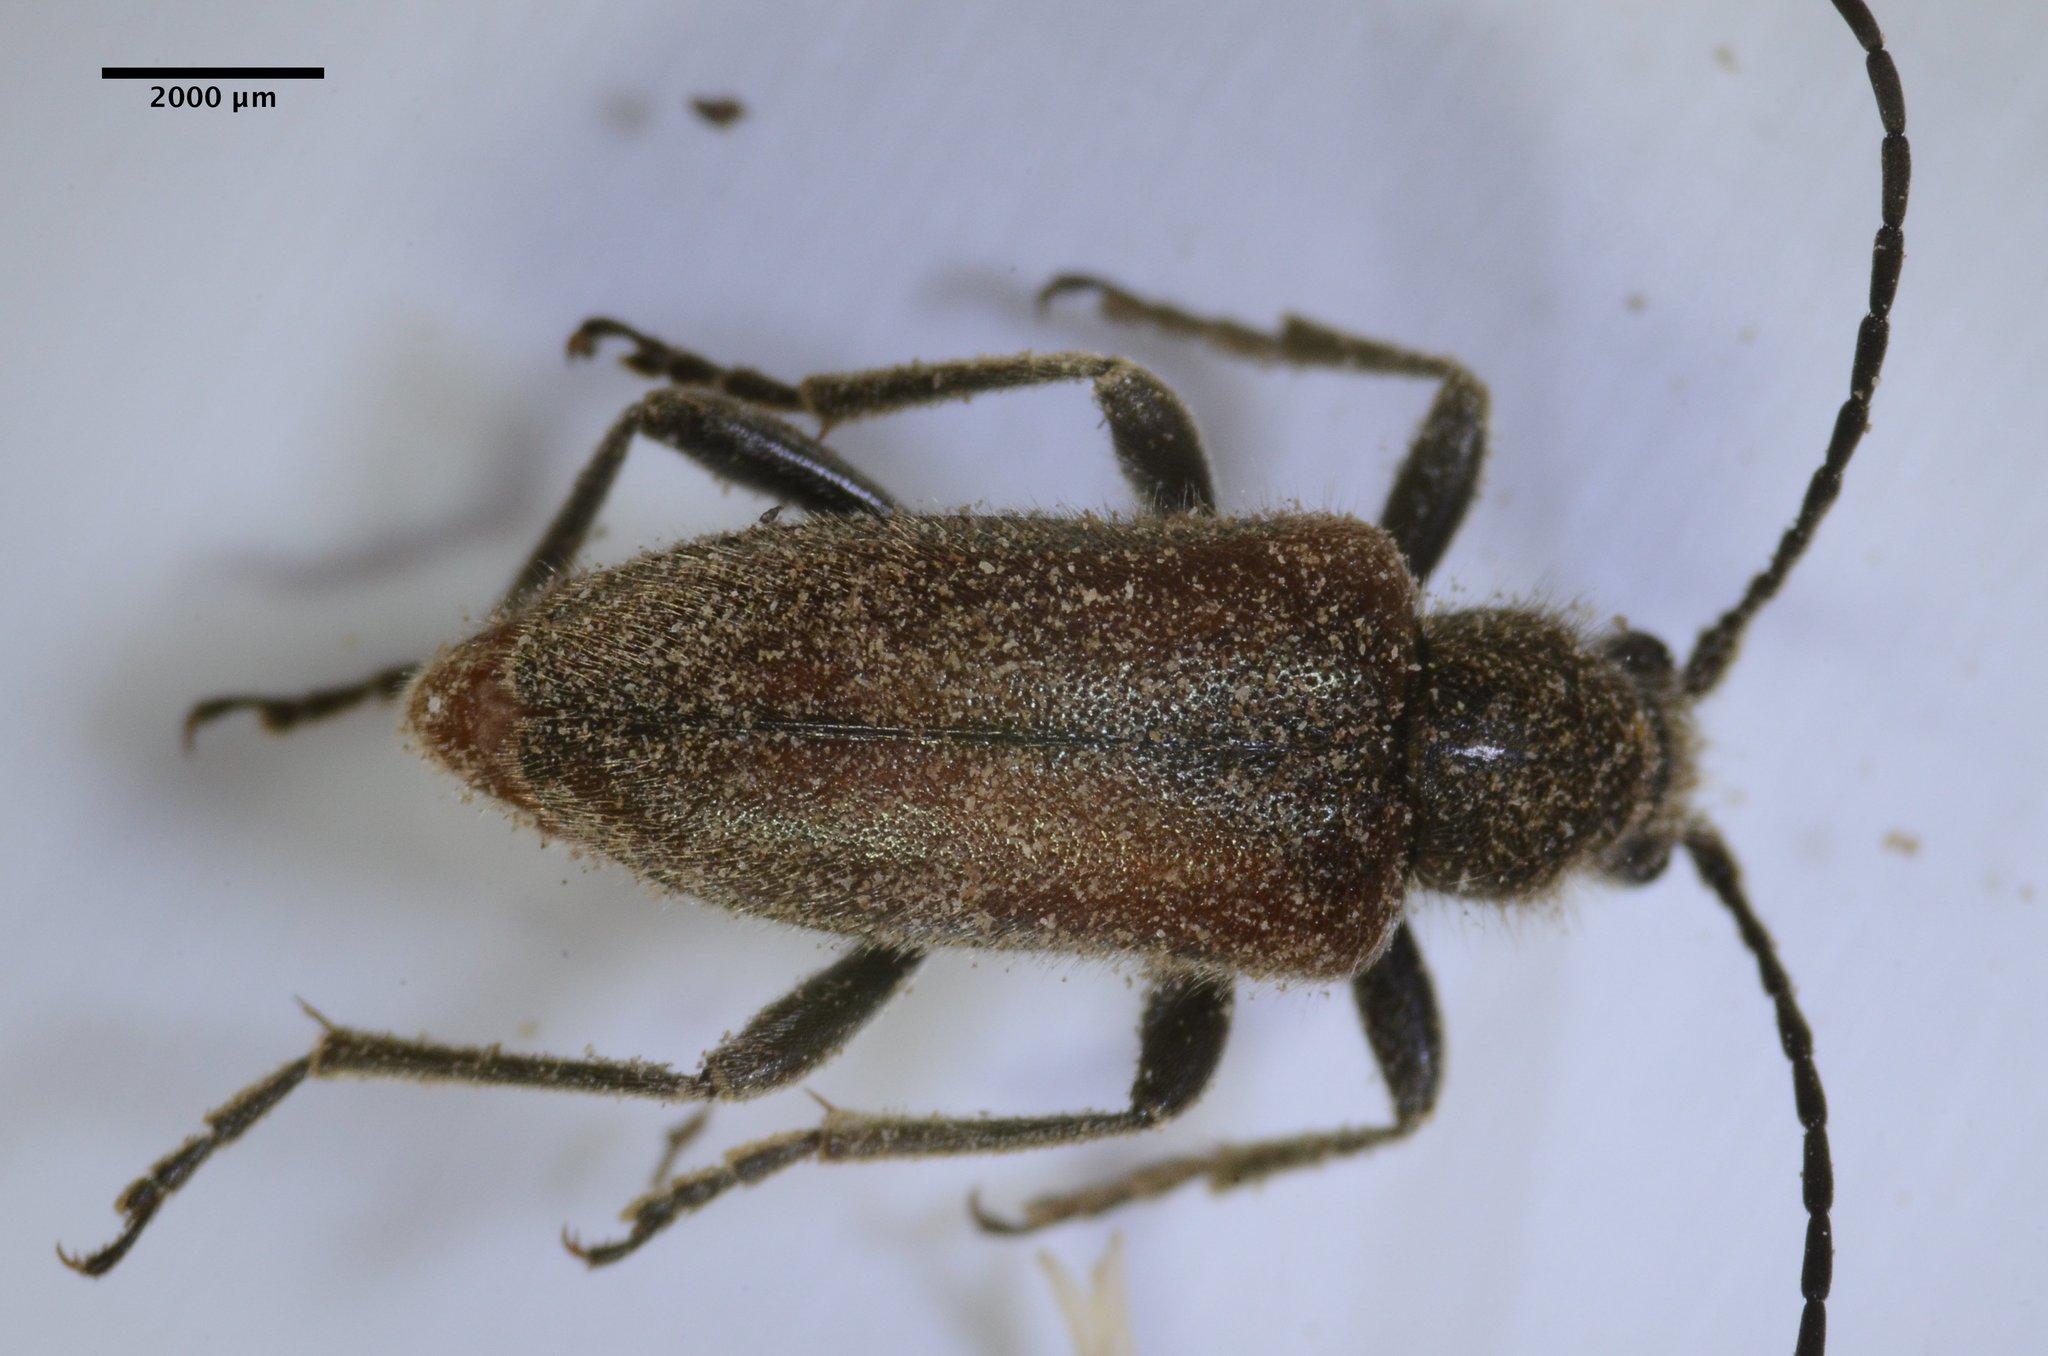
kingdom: Animalia
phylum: Arthropoda
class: Insecta
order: Coleoptera
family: Cerambycidae
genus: Brachysomida
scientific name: Brachysomida californica
